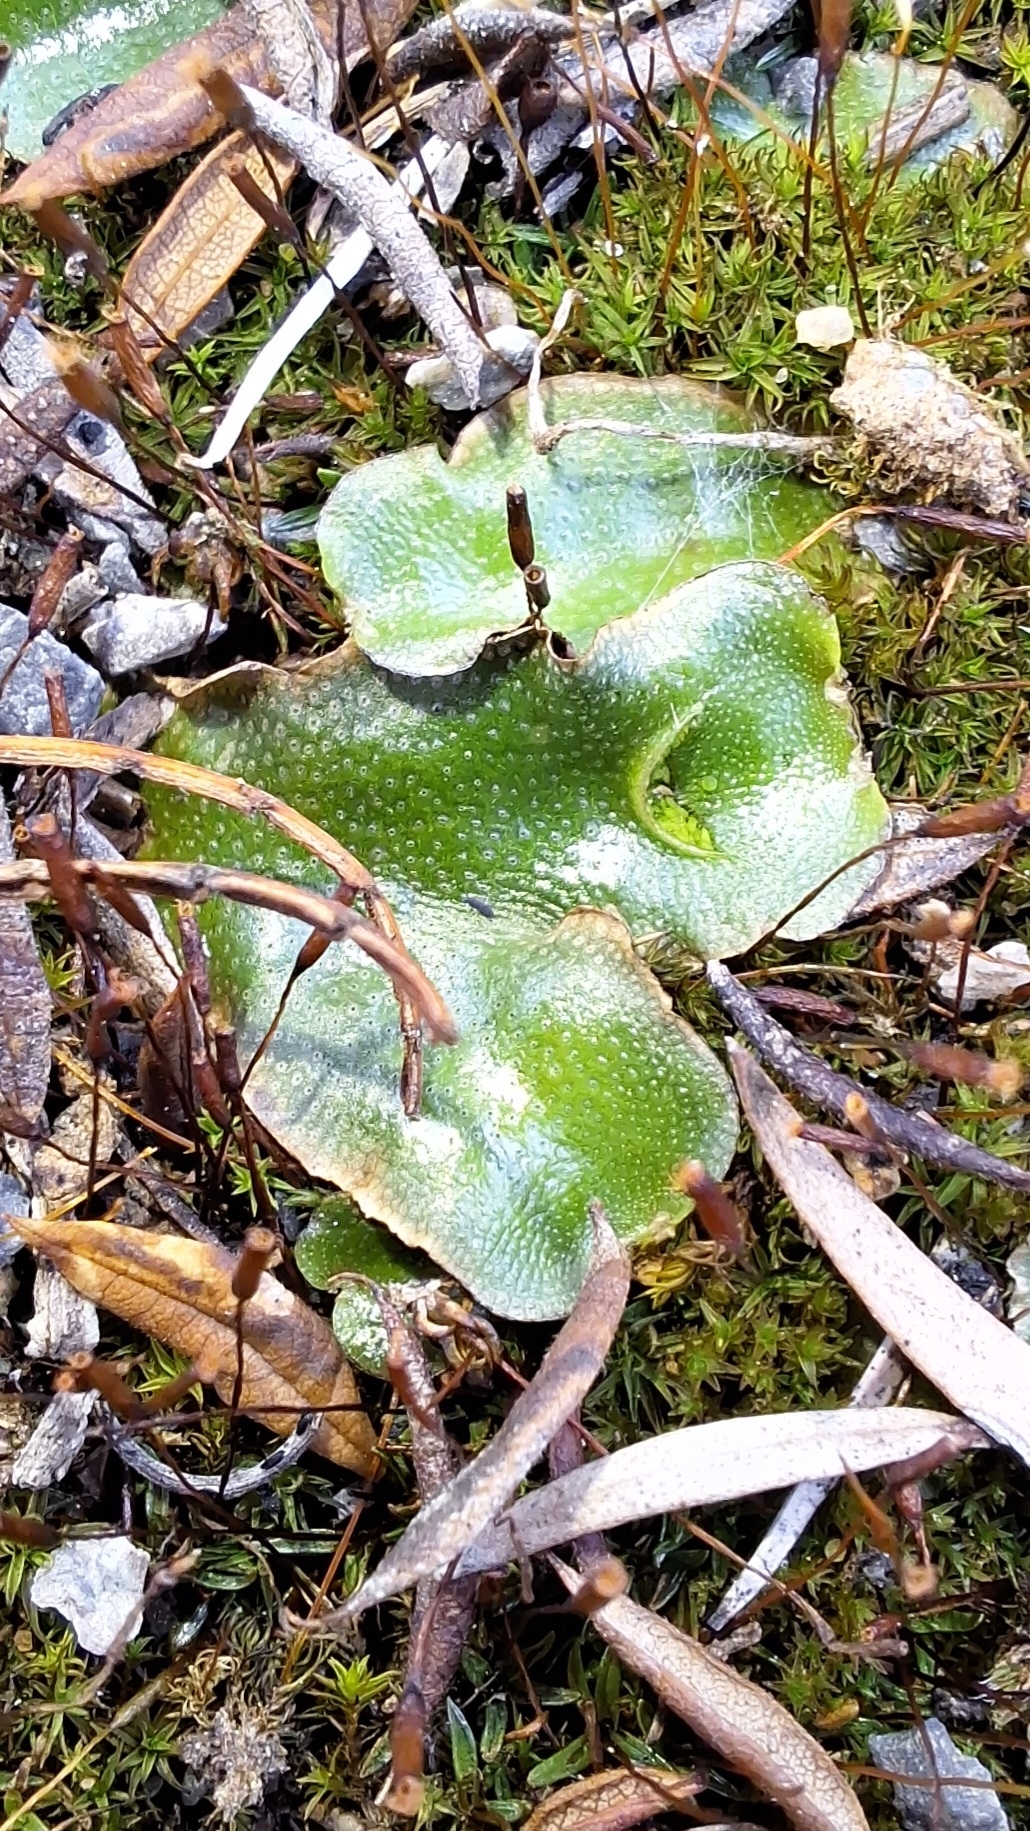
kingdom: Plantae
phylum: Marchantiophyta
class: Marchantiopsida
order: Lunulariales
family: Lunulariaceae
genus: Lunularia
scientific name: Lunularia cruciata
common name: Crescent-cup liverwort
